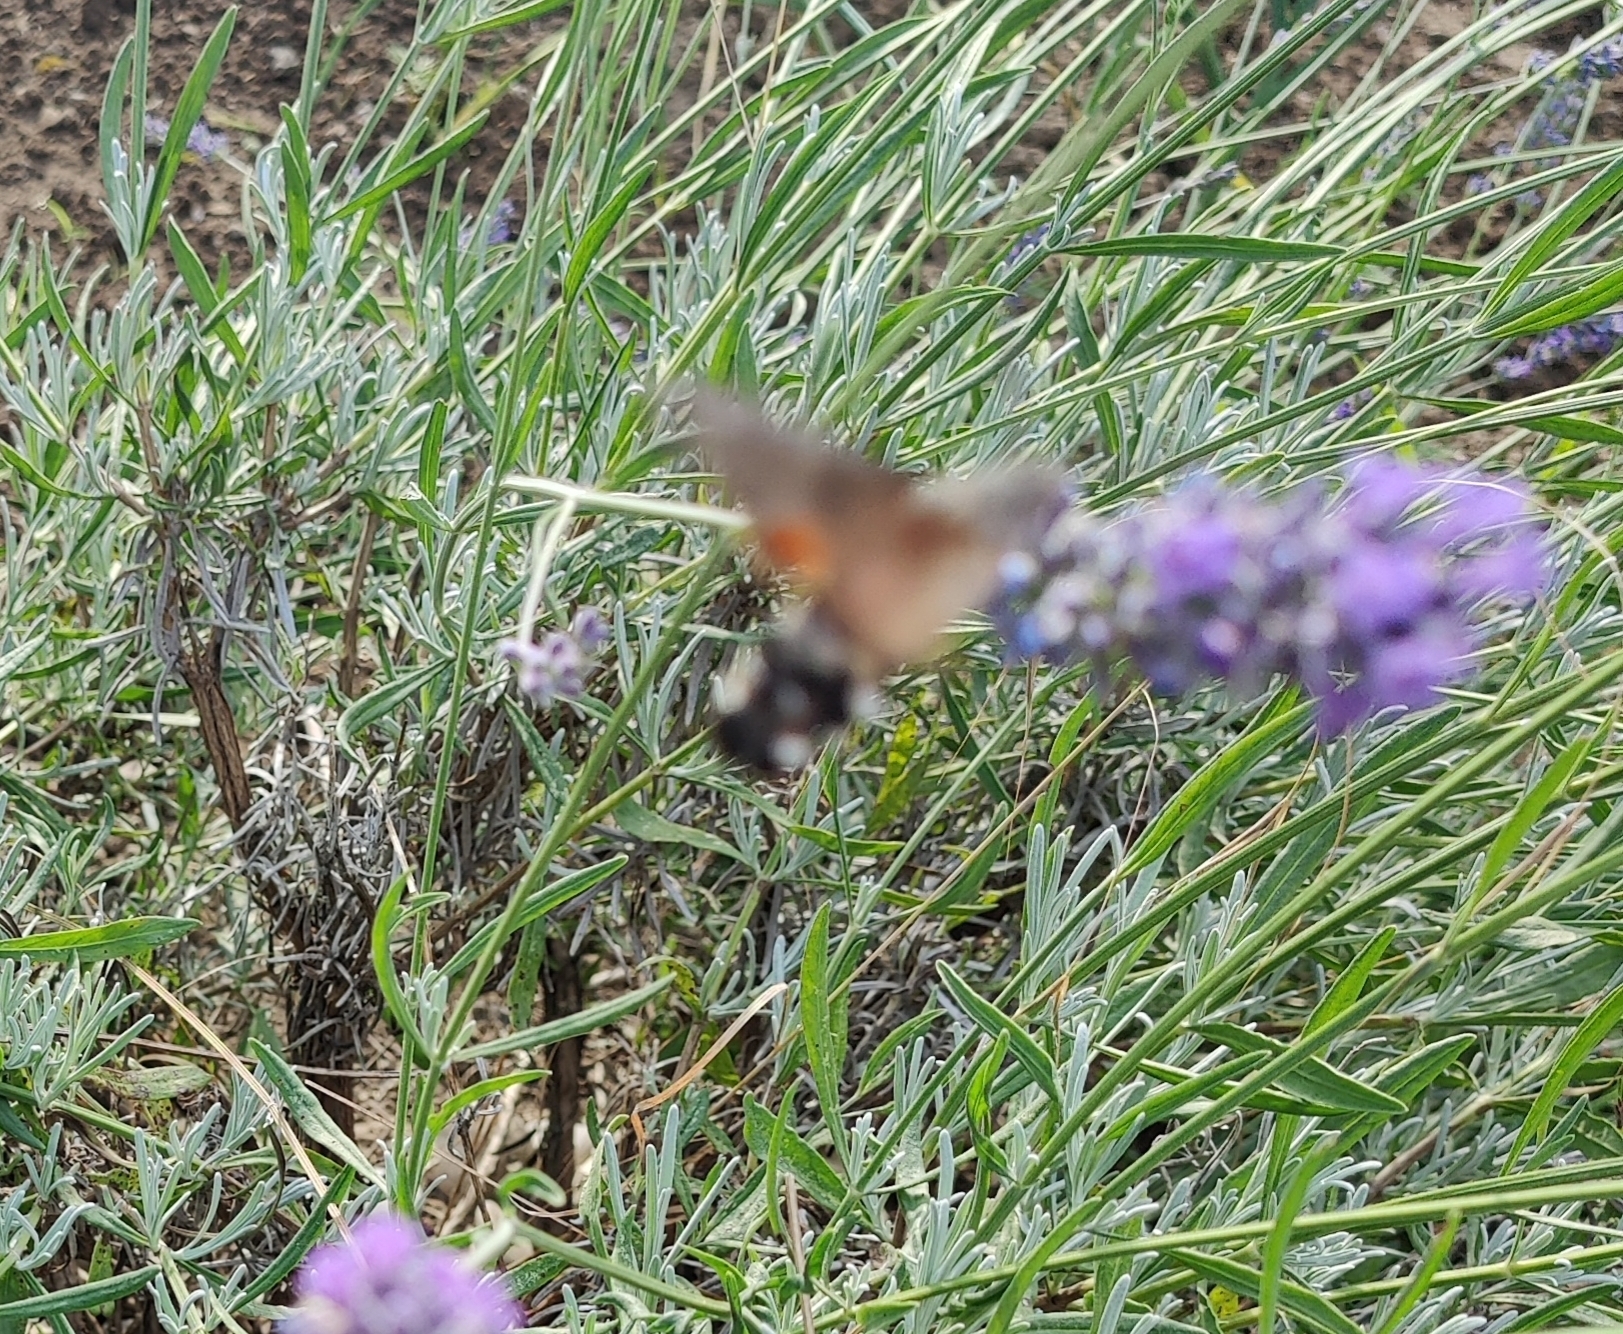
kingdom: Animalia
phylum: Arthropoda
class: Insecta
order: Lepidoptera
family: Sphingidae
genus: Macroglossum
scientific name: Macroglossum stellatarum
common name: Humming-bird hawk-moth
